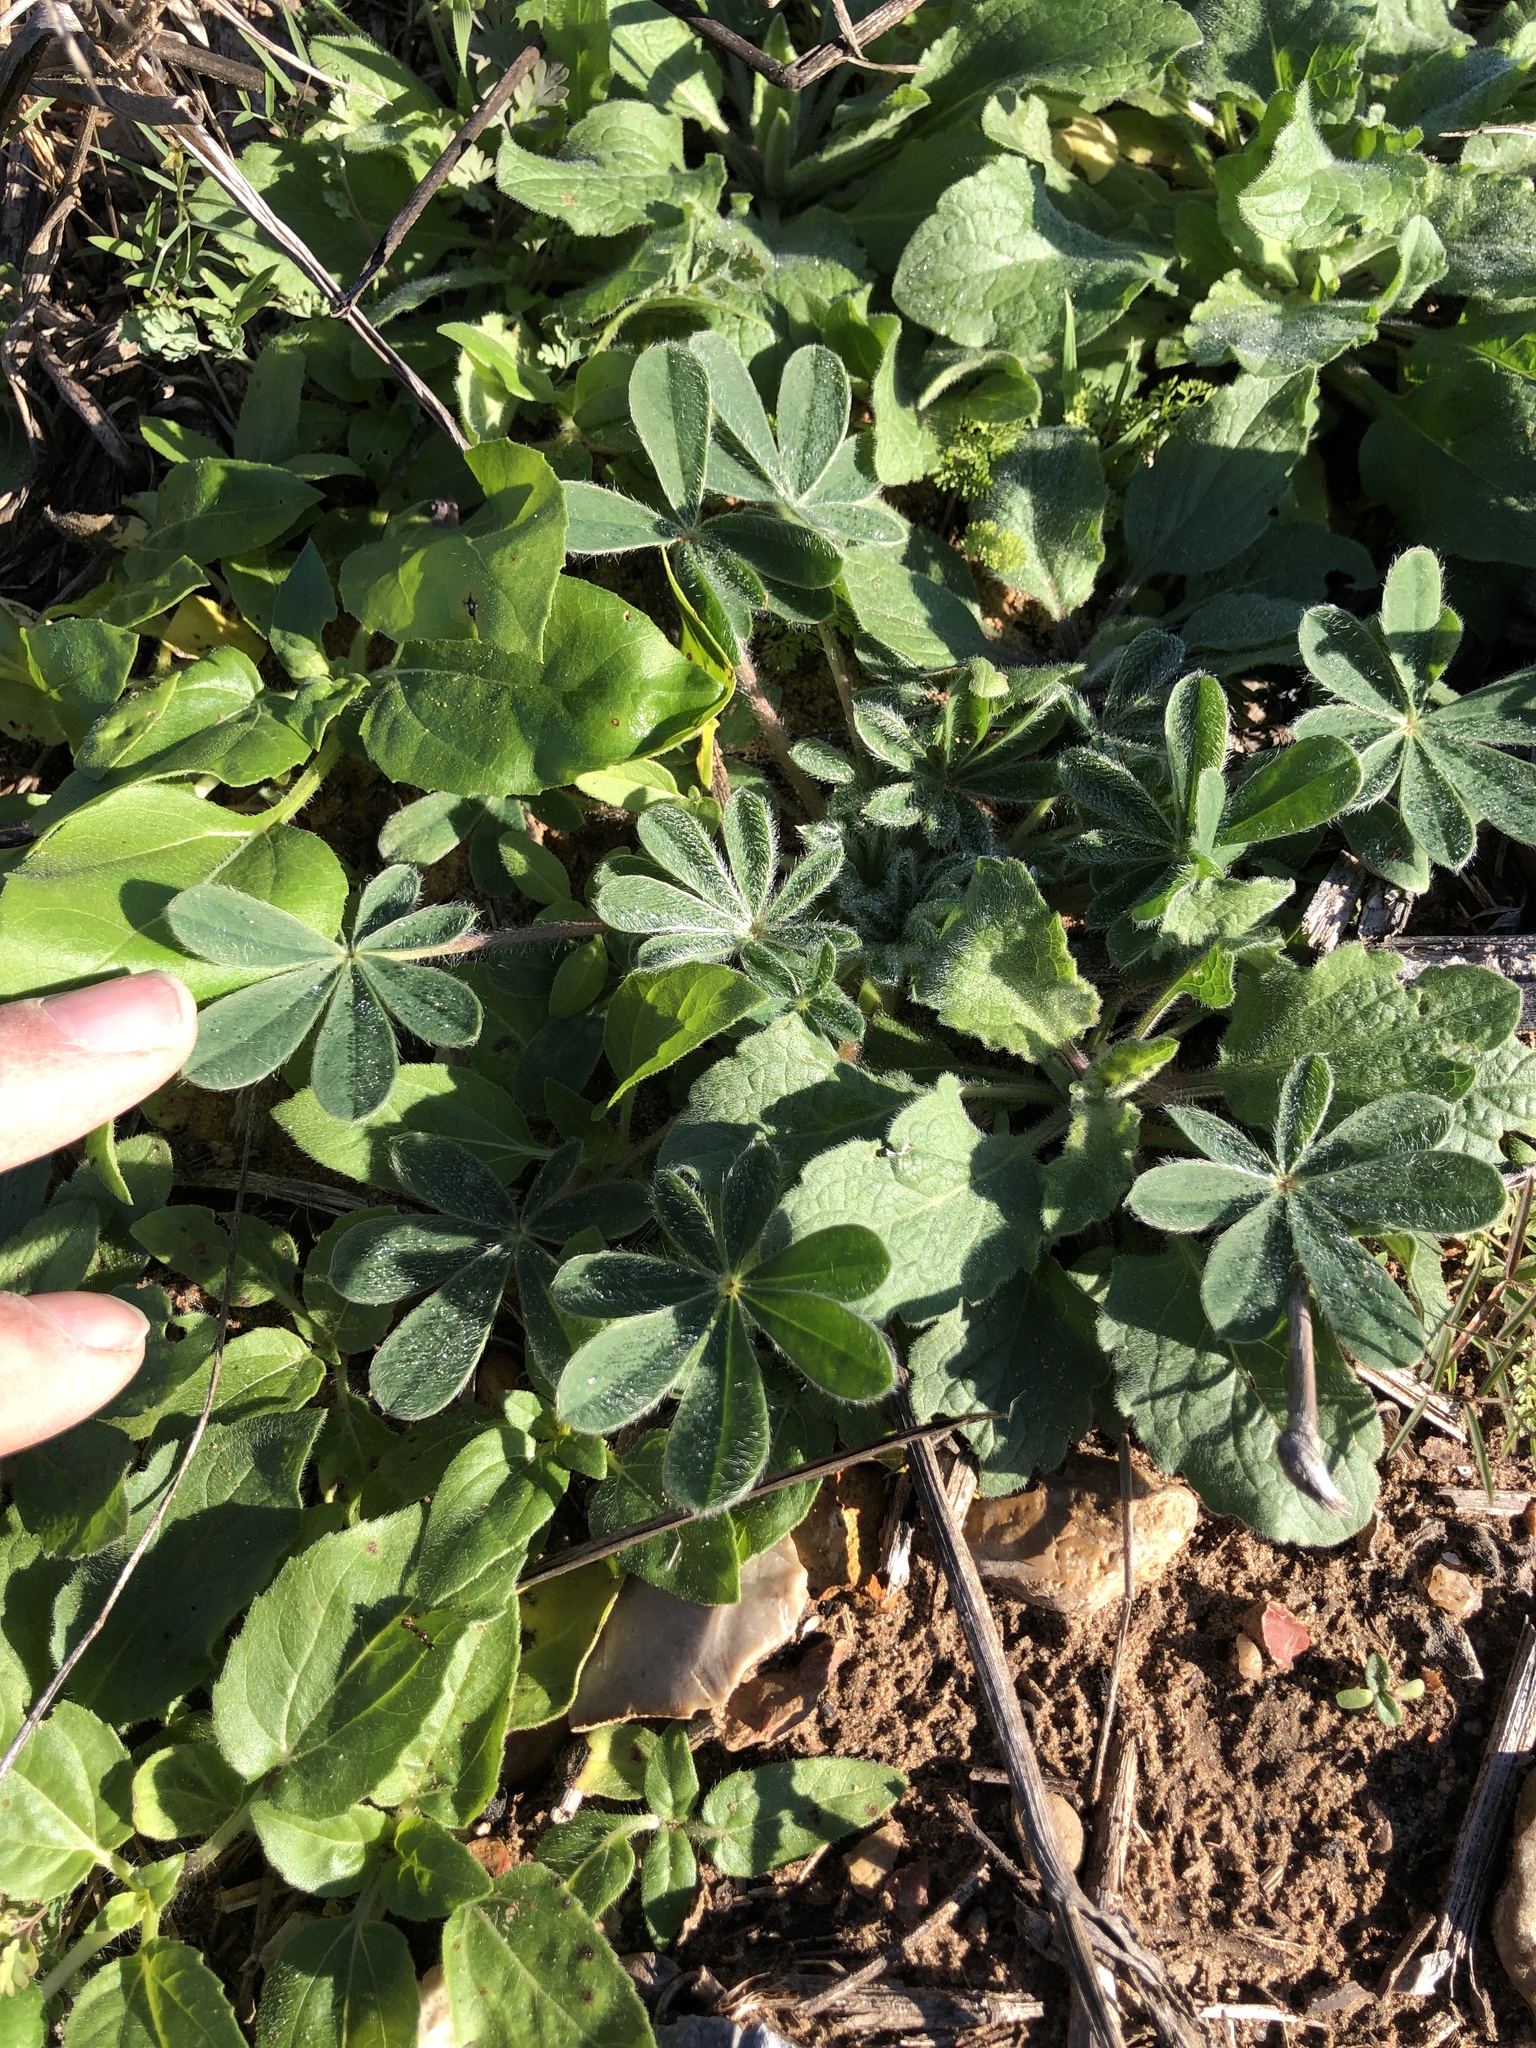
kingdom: Plantae
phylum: Tracheophyta
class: Magnoliopsida
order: Fabales
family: Fabaceae
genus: Lupinus
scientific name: Lupinus subcarnosus
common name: Texas bluebonnet
